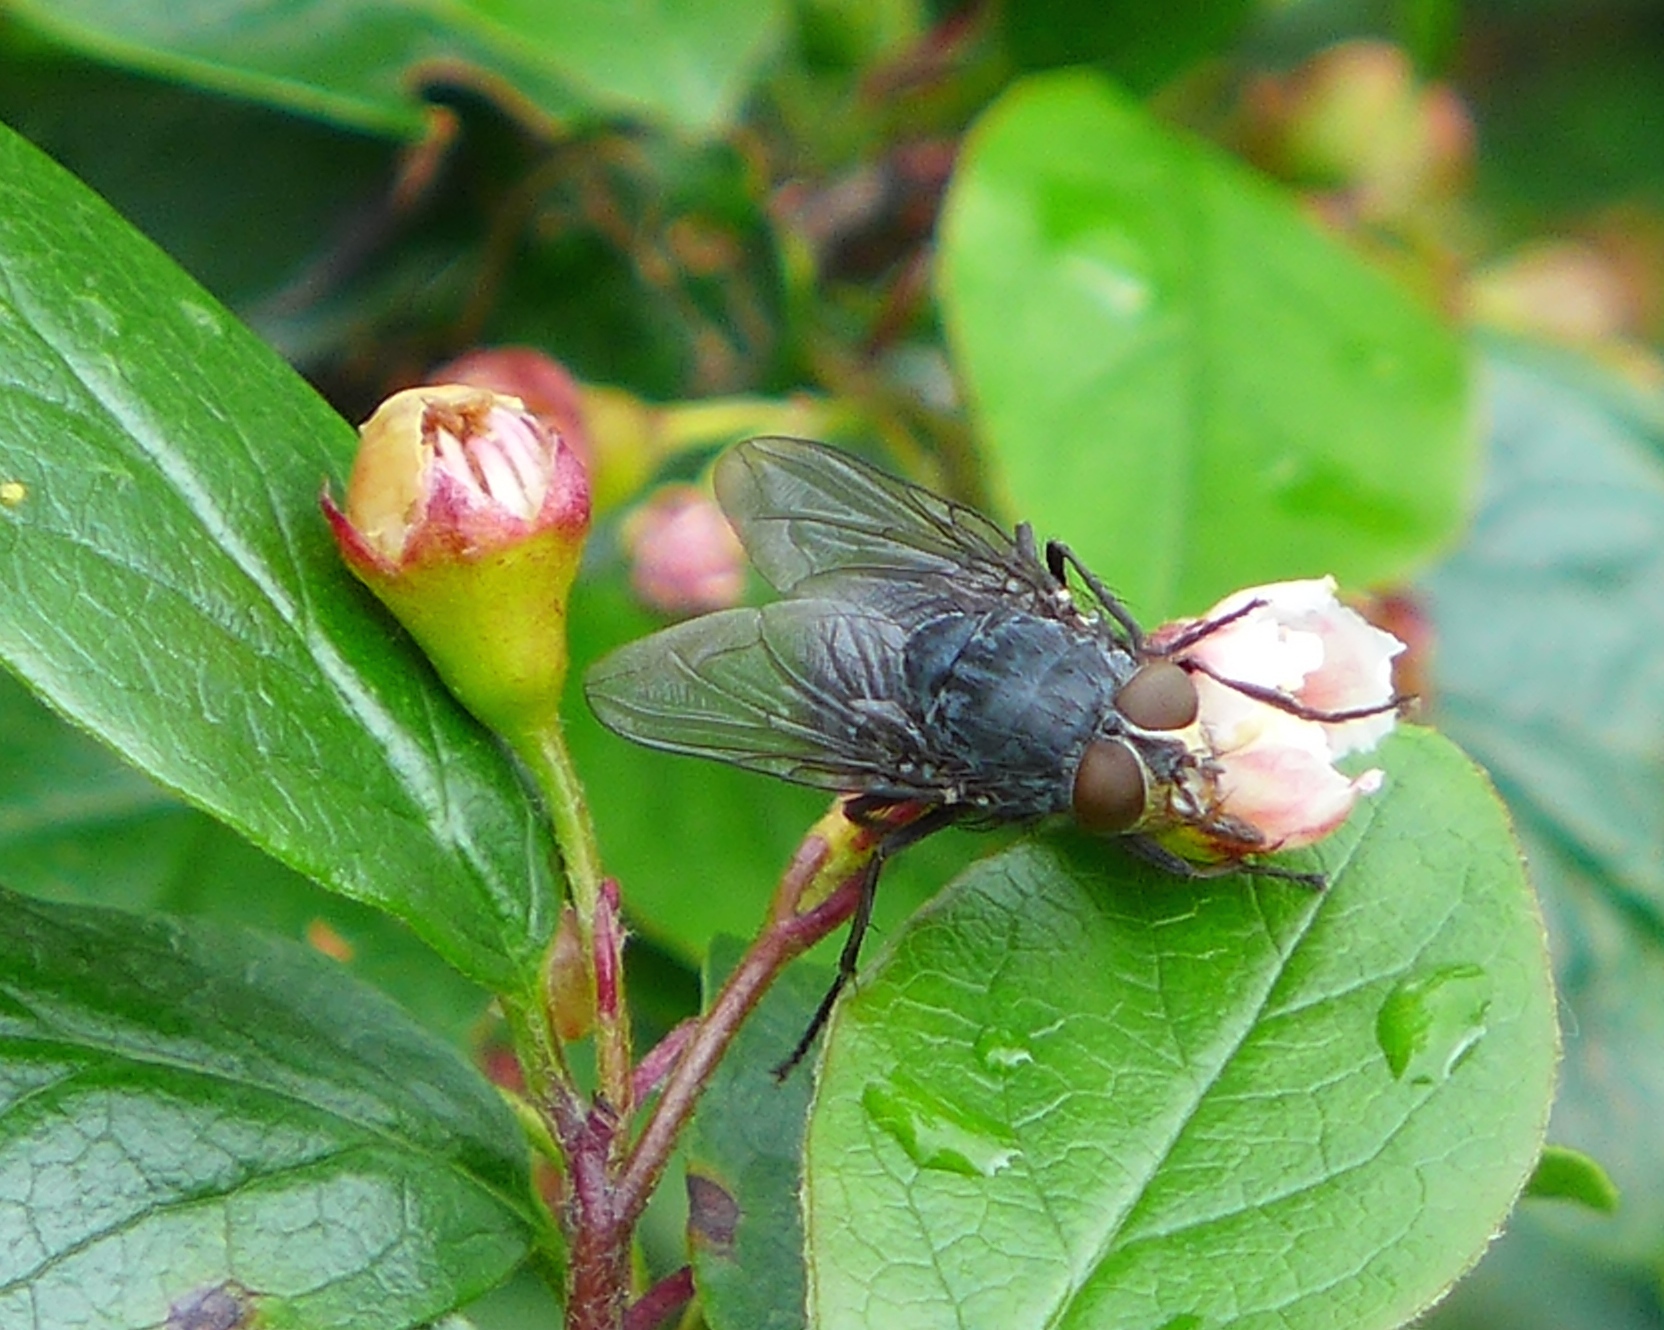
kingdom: Animalia
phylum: Arthropoda
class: Insecta
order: Diptera
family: Calliphoridae
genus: Calliphora
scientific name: Calliphora vicina
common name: Common blow flie
